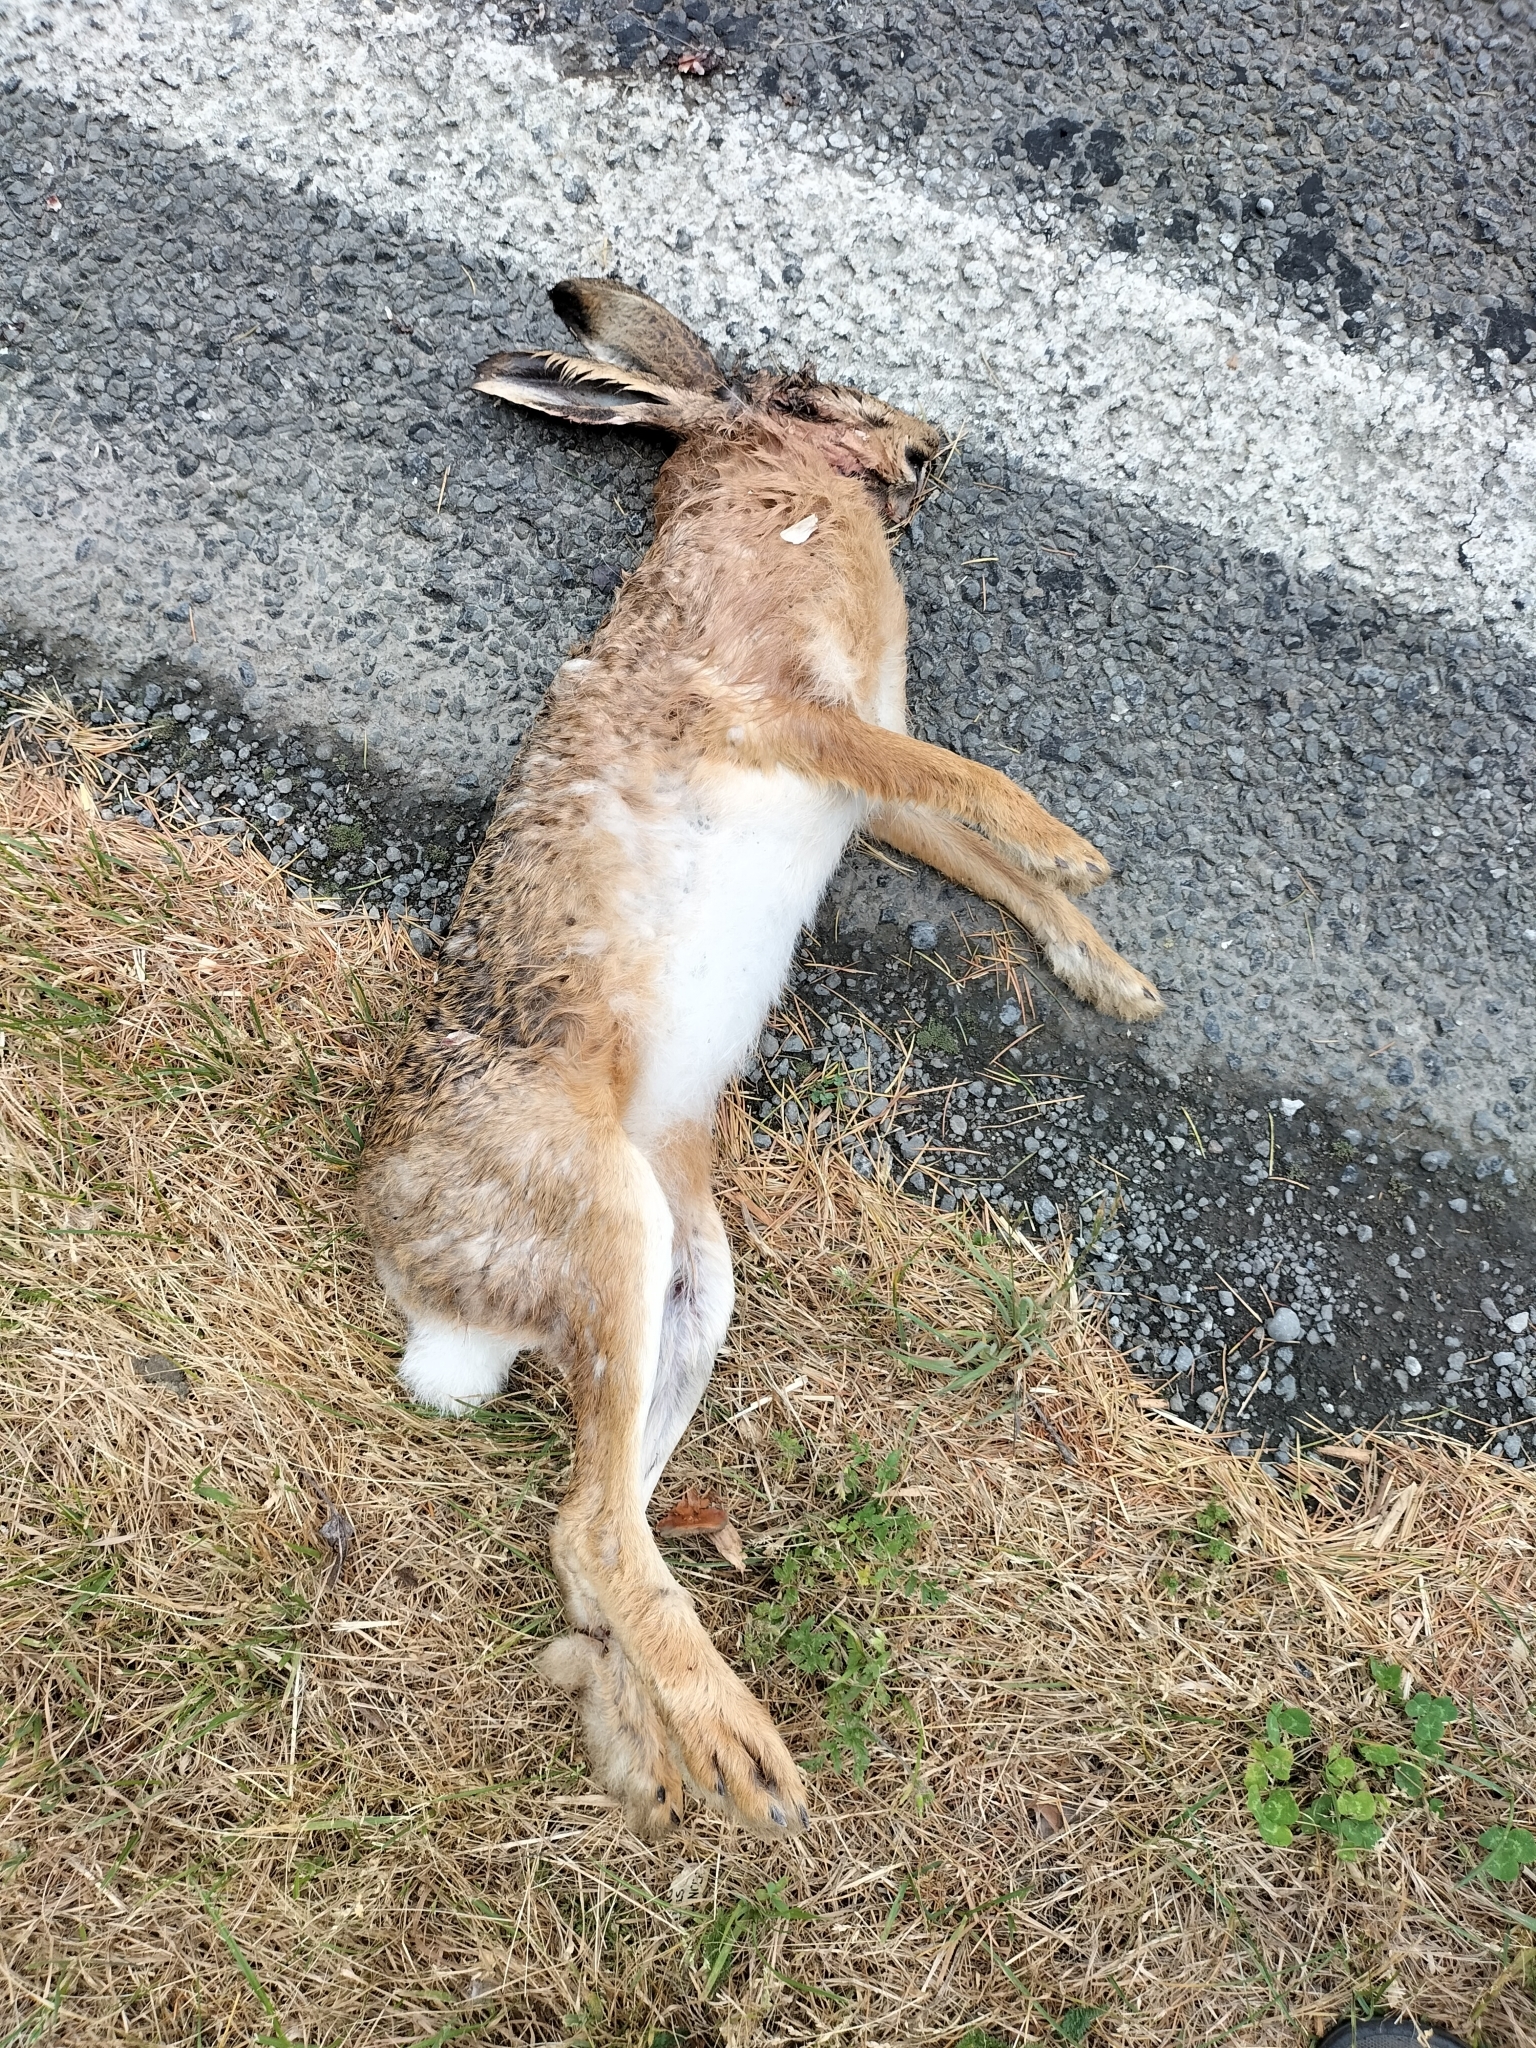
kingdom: Animalia
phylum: Chordata
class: Mammalia
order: Lagomorpha
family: Leporidae
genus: Lepus
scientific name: Lepus europaeus
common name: European hare
